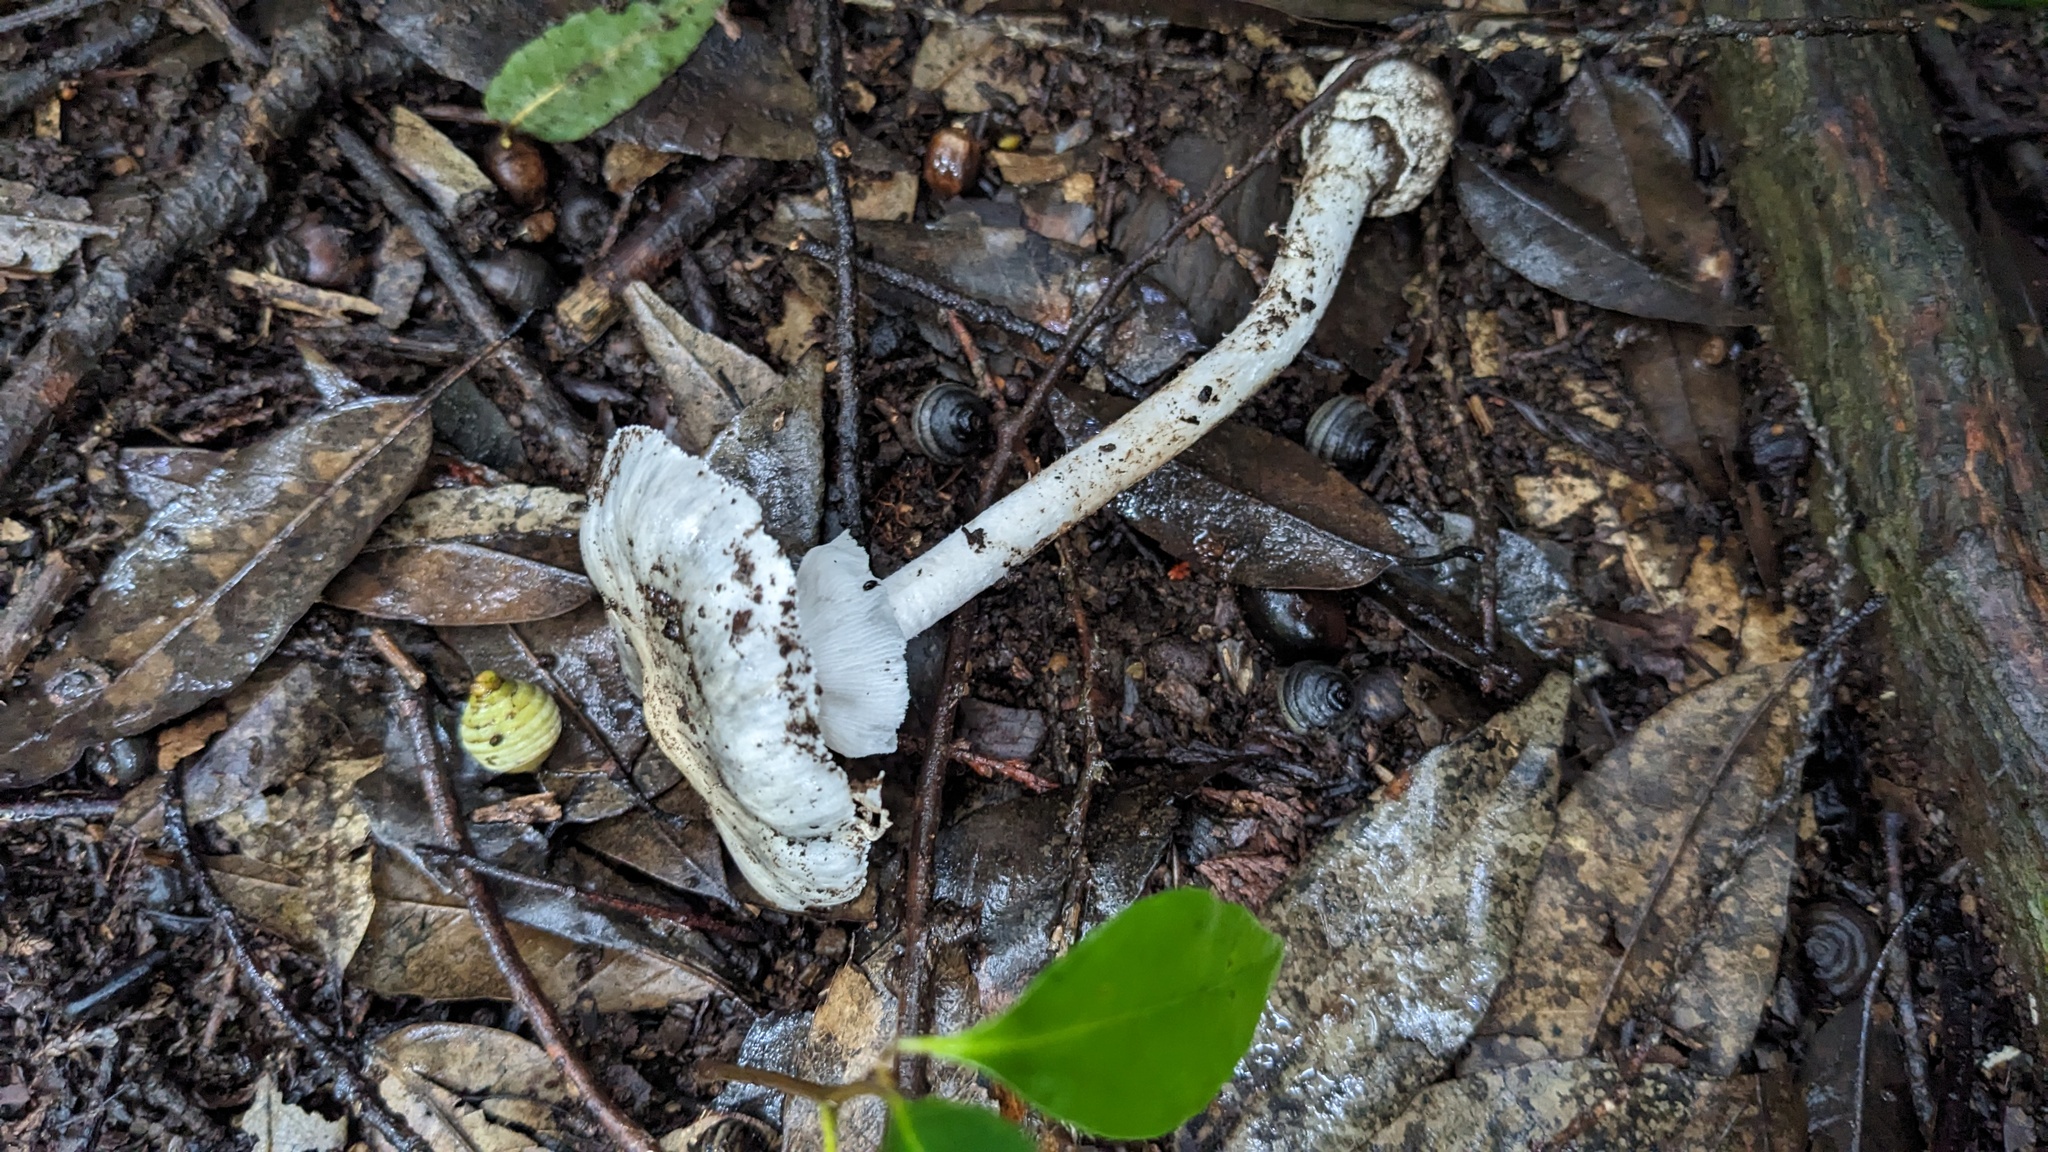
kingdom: Fungi
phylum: Basidiomycota
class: Agaricomycetes
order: Agaricales
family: Amanitaceae
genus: Amanita
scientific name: Amanita griseoturcosa
